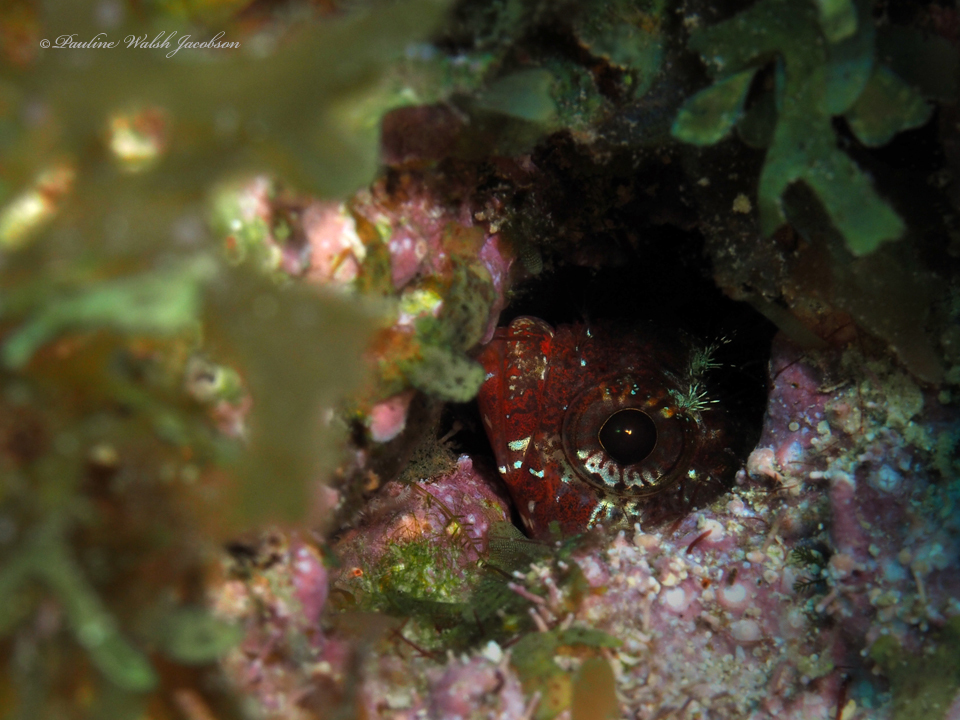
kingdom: Animalia
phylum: Chordata
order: Perciformes
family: Labrisomidae
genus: Gobioclinus
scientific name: Gobioclinus bucciferus
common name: Puffcheek blenny
